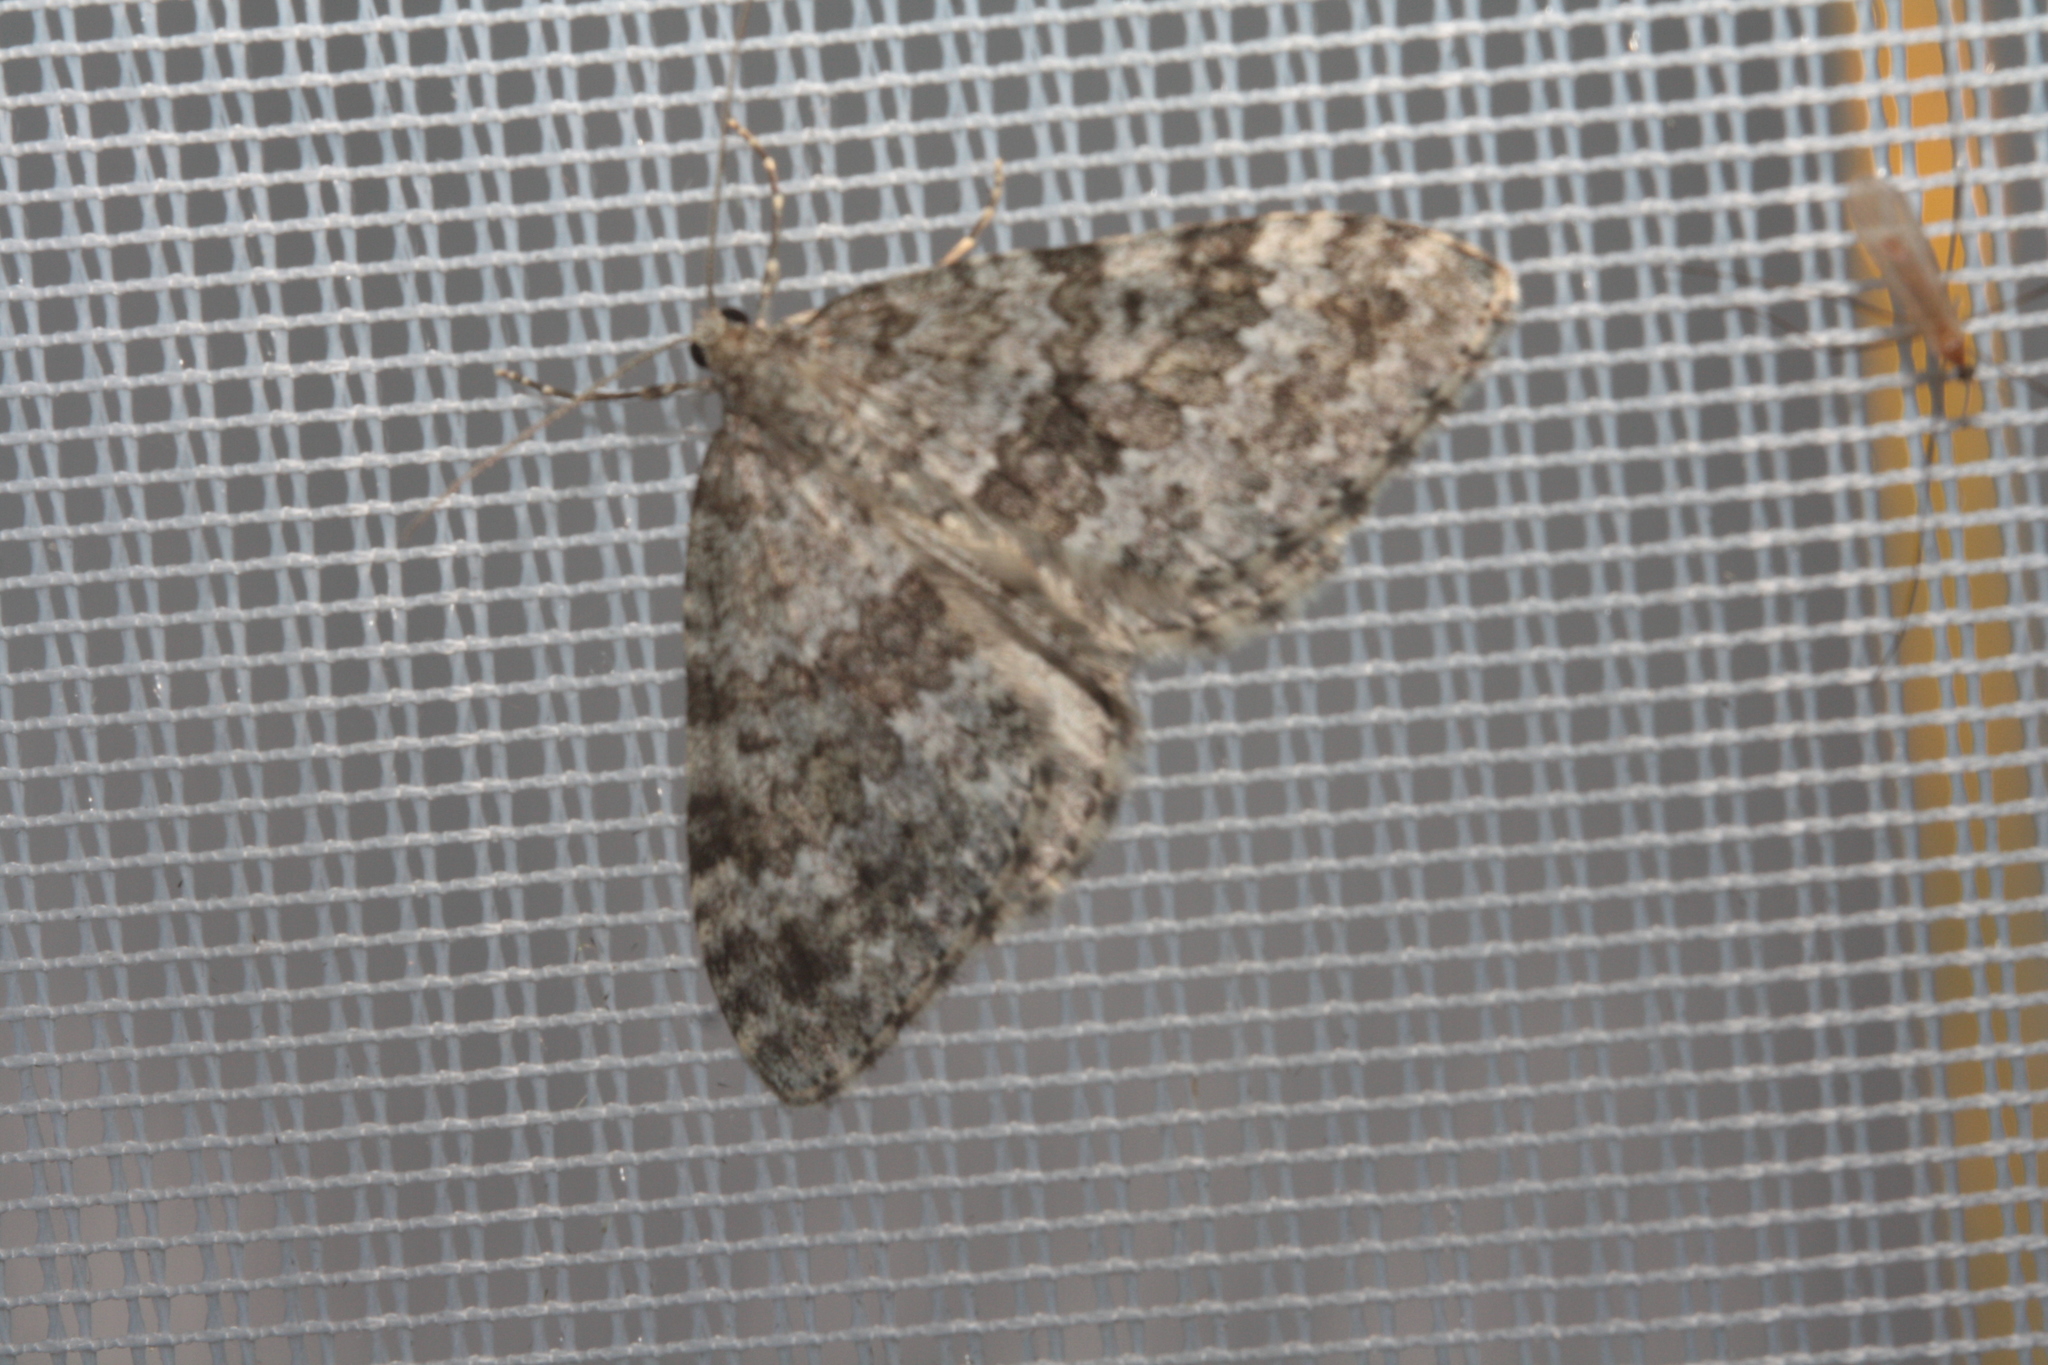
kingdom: Animalia
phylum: Arthropoda
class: Insecta
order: Lepidoptera
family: Geometridae
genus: Entephria
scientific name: Entephria caesiata
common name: Grey mountain moth
